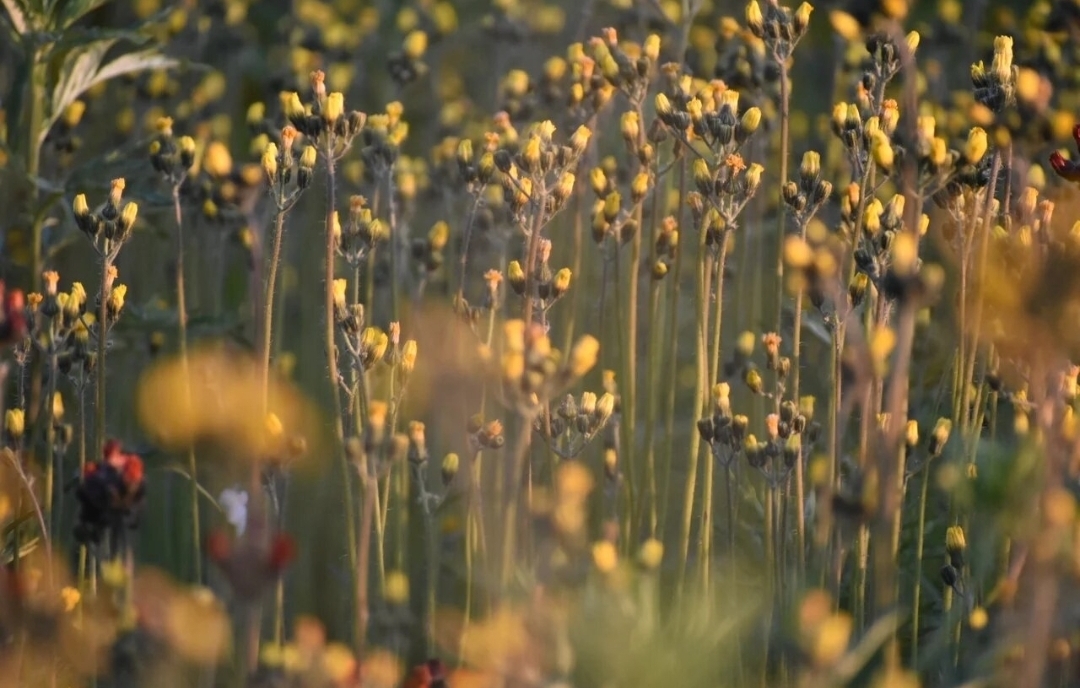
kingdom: Plantae
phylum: Tracheophyta
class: Magnoliopsida
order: Asterales
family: Asteraceae
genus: Pilosella
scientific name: Pilosella floribunda
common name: Glaucous hawkweed
